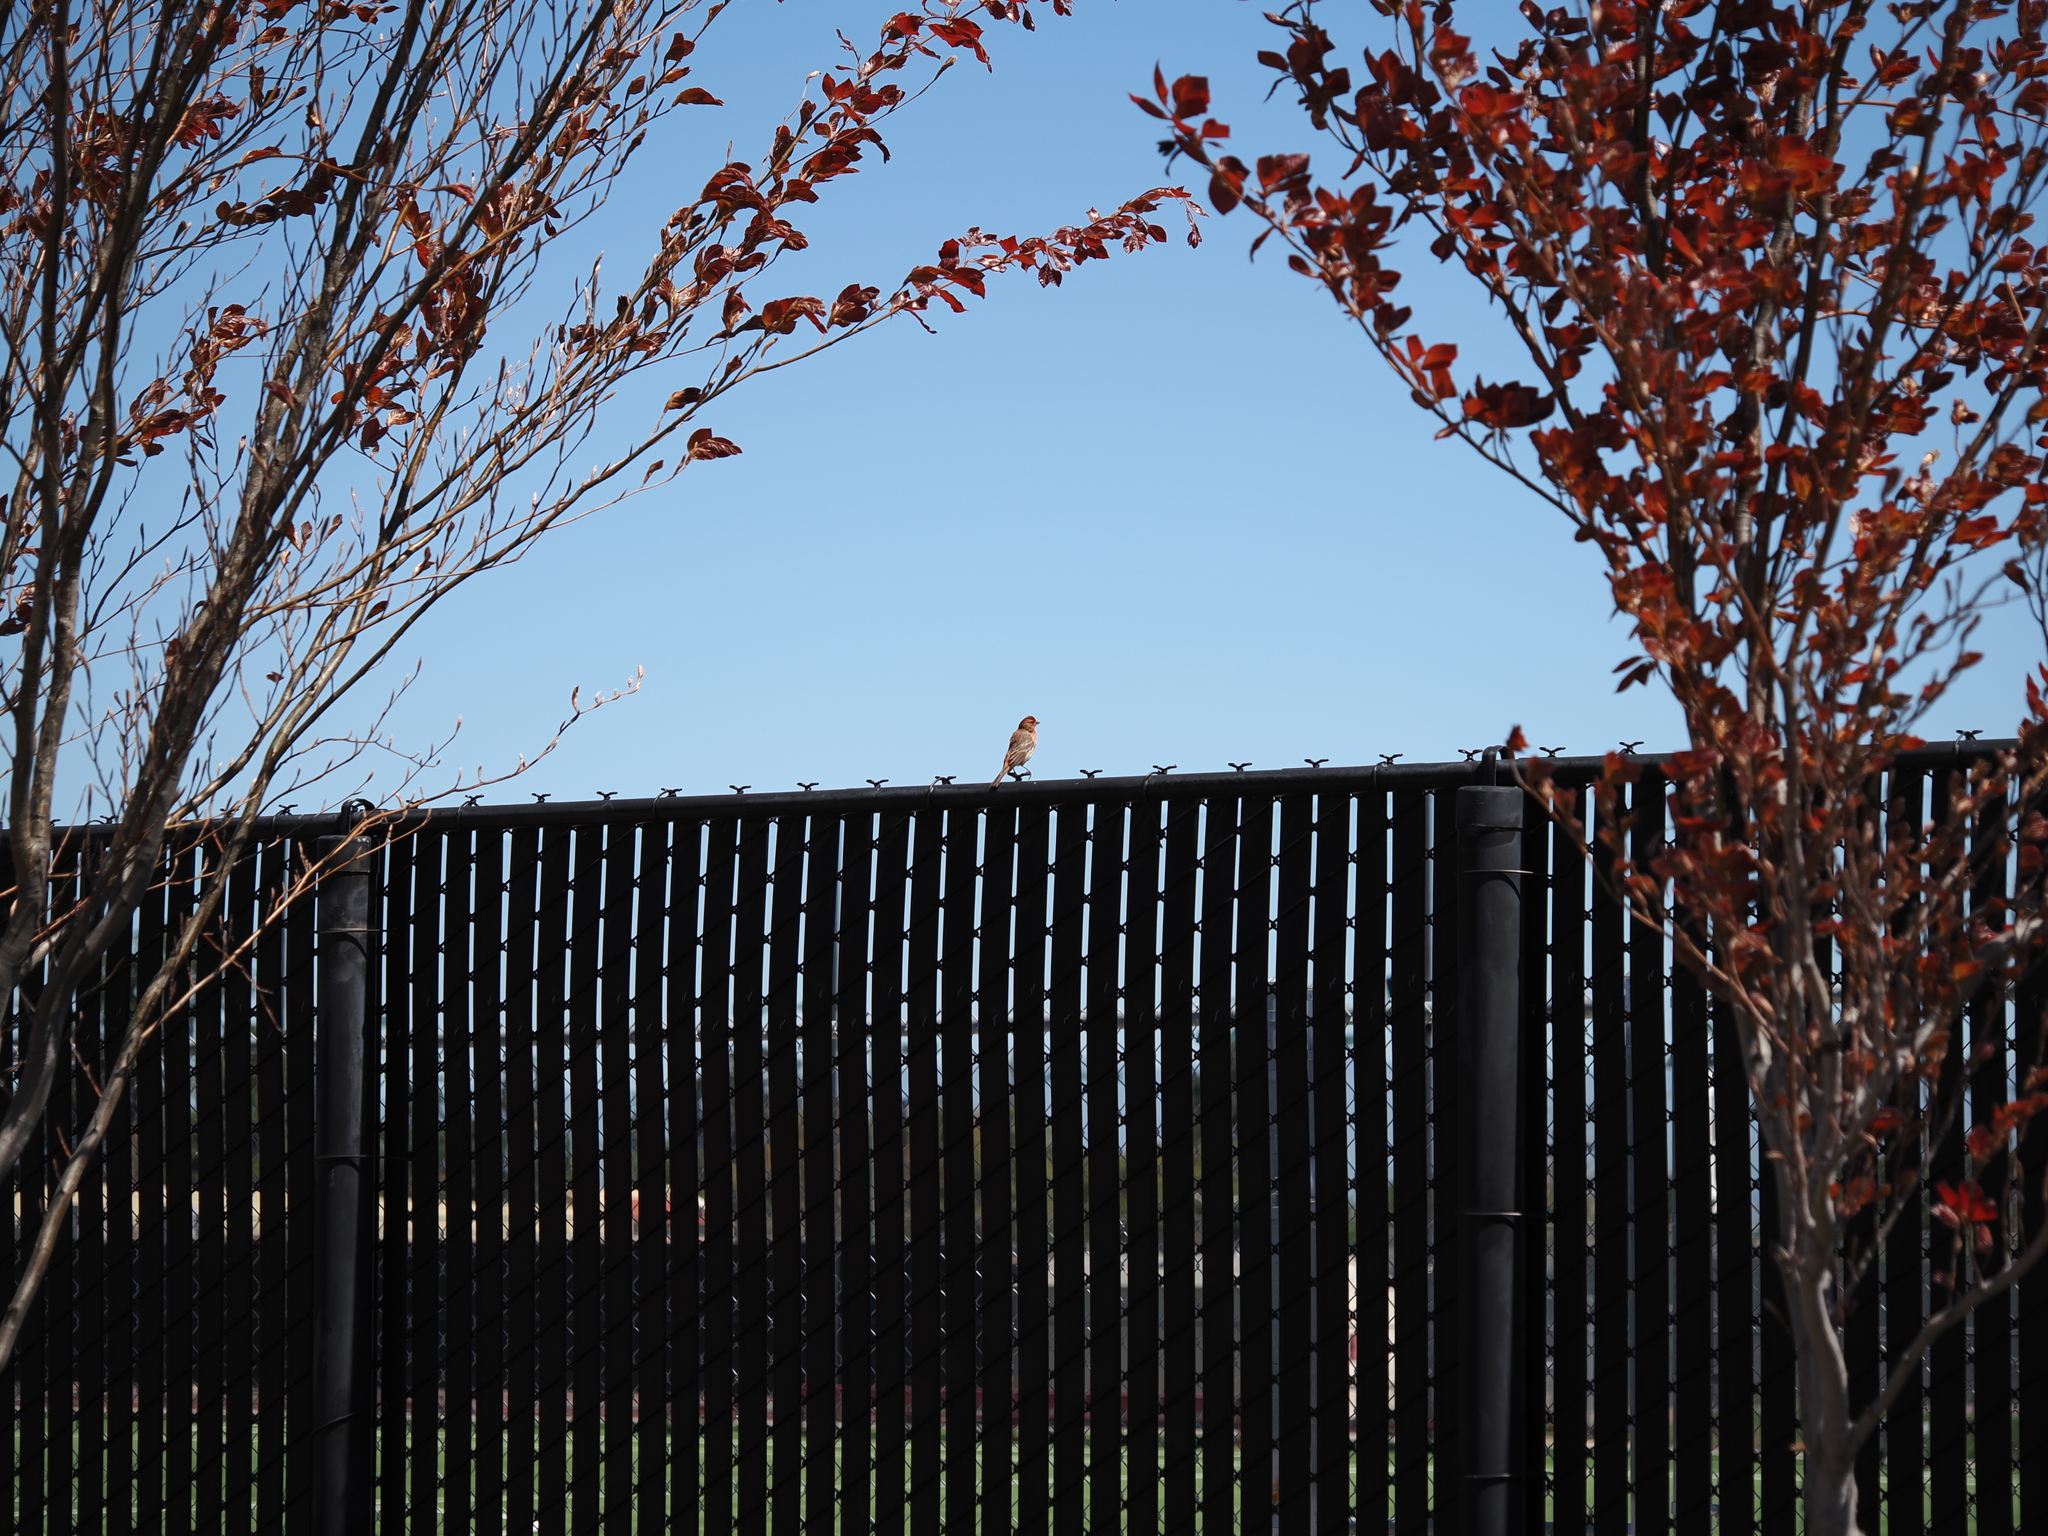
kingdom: Animalia
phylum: Chordata
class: Aves
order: Passeriformes
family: Fringillidae
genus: Haemorhous
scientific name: Haemorhous mexicanus
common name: House finch
